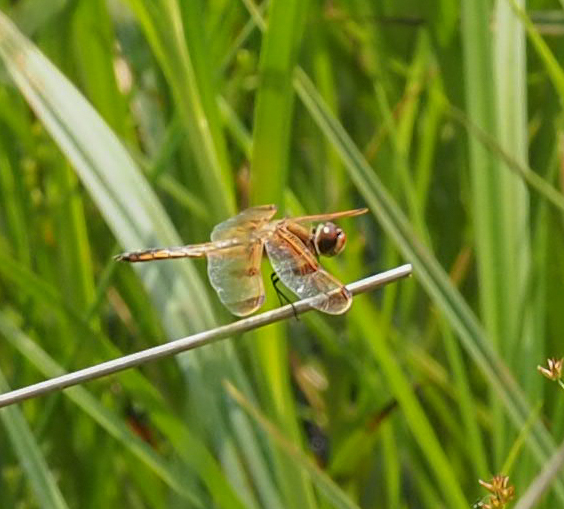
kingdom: Animalia
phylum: Arthropoda
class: Insecta
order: Odonata
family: Libellulidae
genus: Libellula
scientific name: Libellula semifasciata
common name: Painted skimmer
